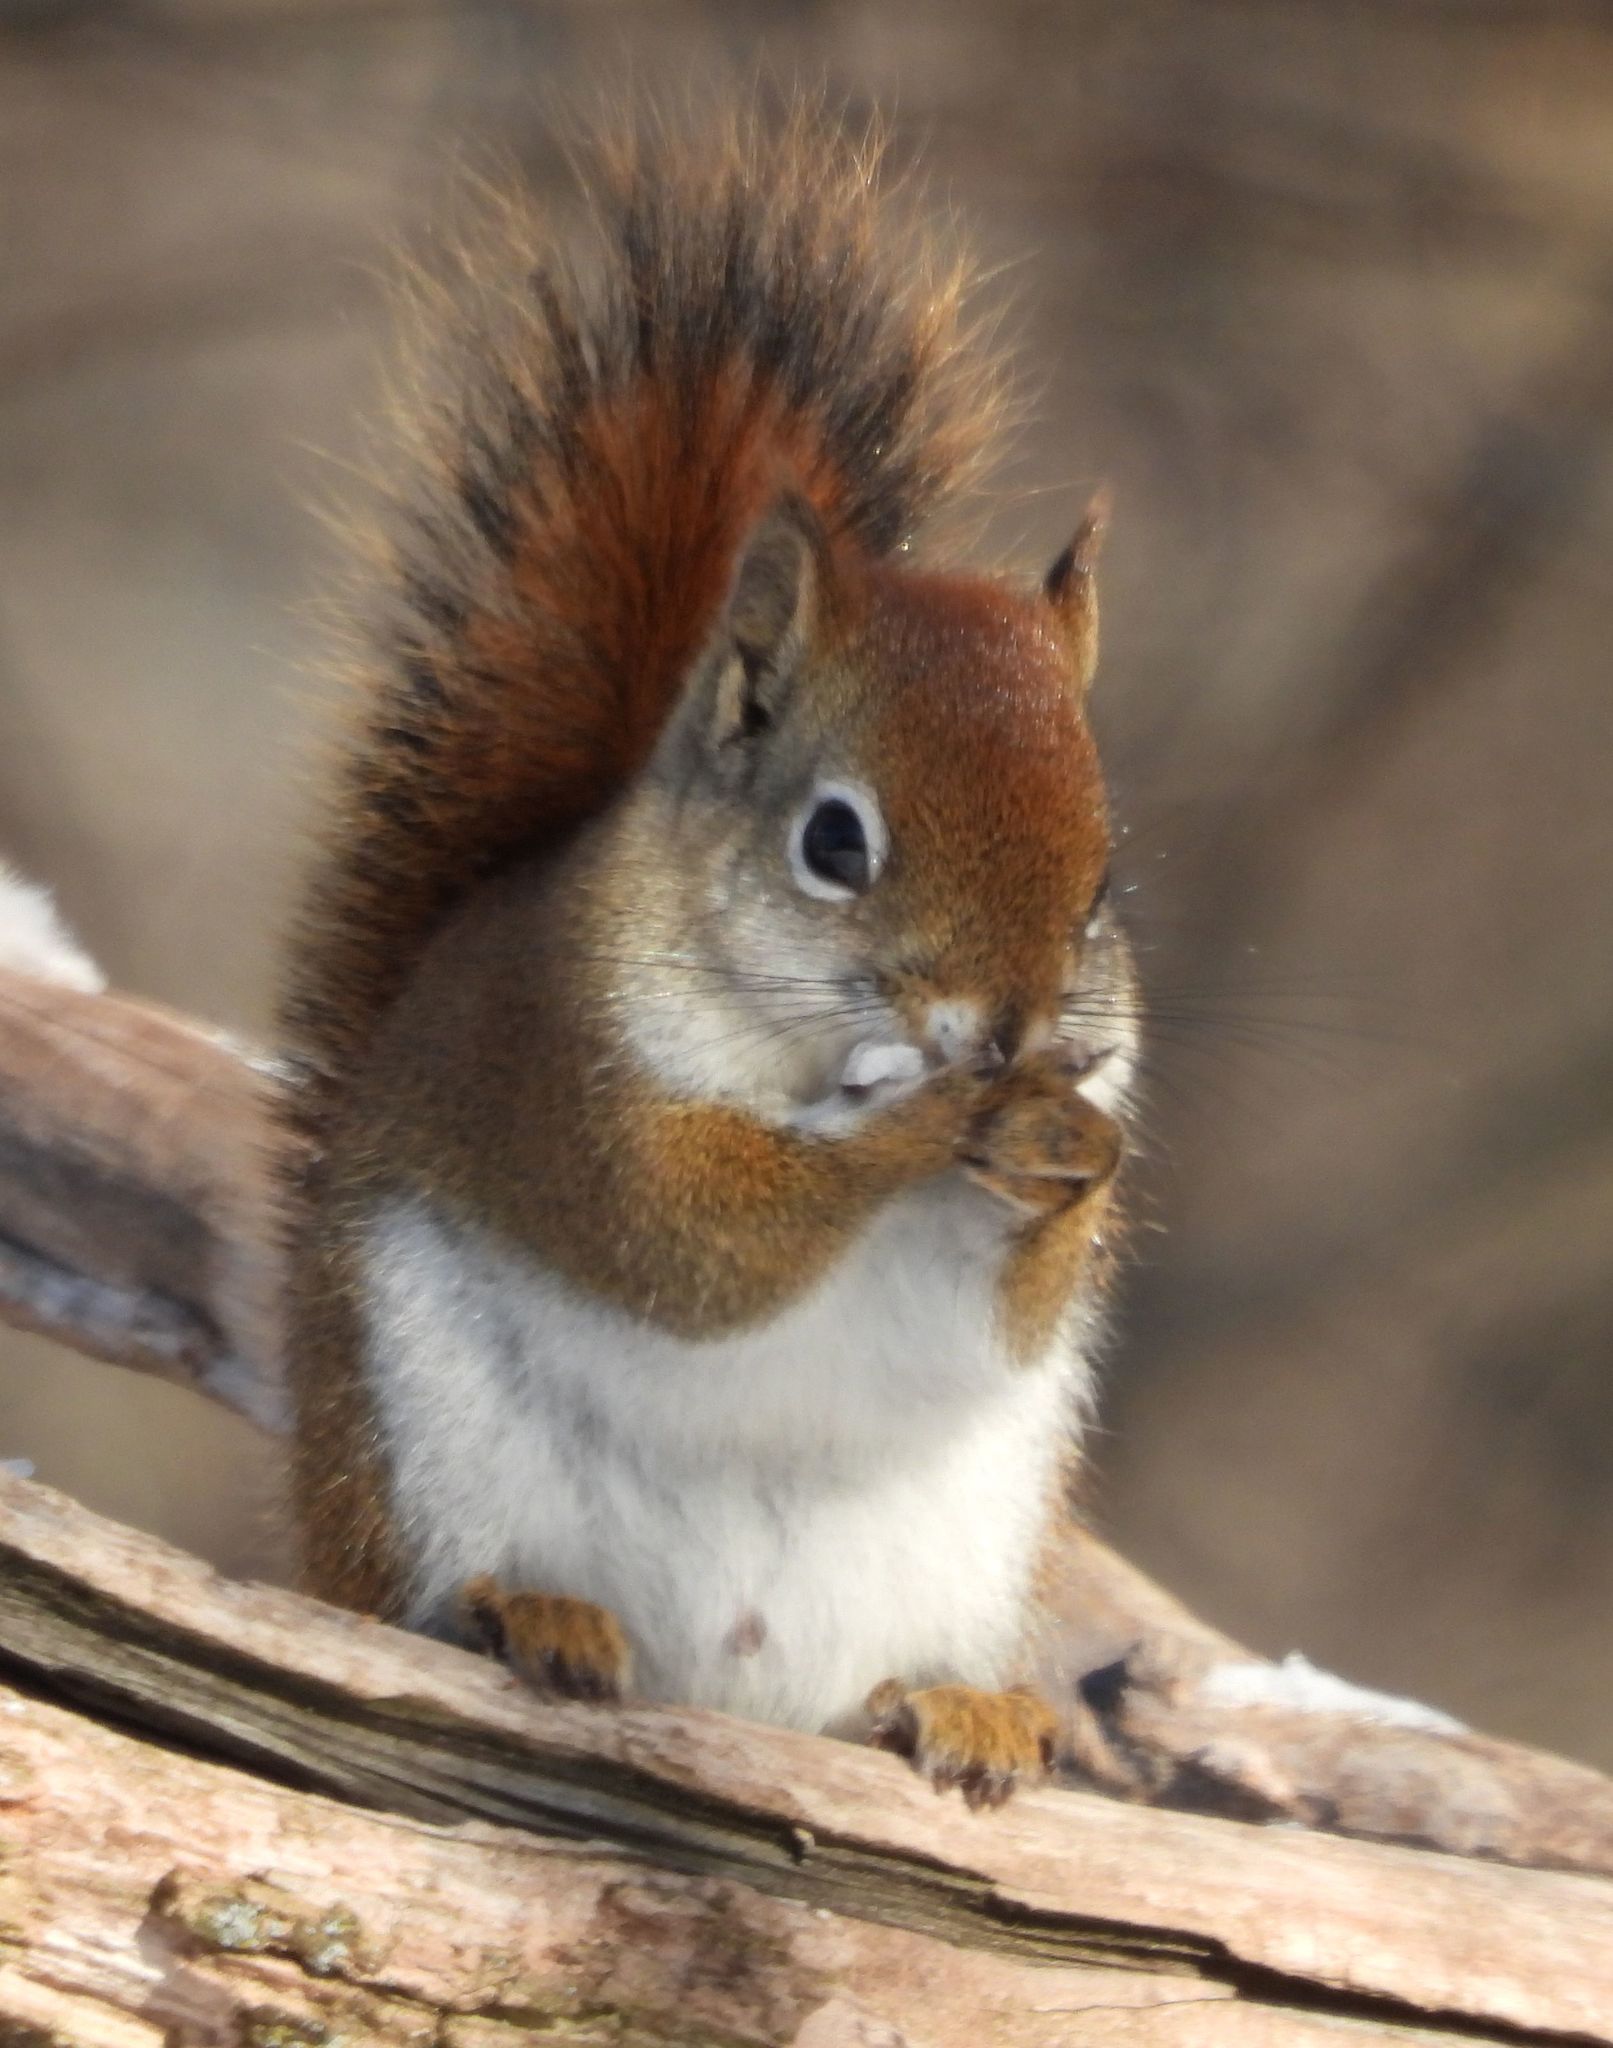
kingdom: Animalia
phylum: Chordata
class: Mammalia
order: Rodentia
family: Sciuridae
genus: Tamiasciurus
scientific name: Tamiasciurus hudsonicus
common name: Red squirrel
